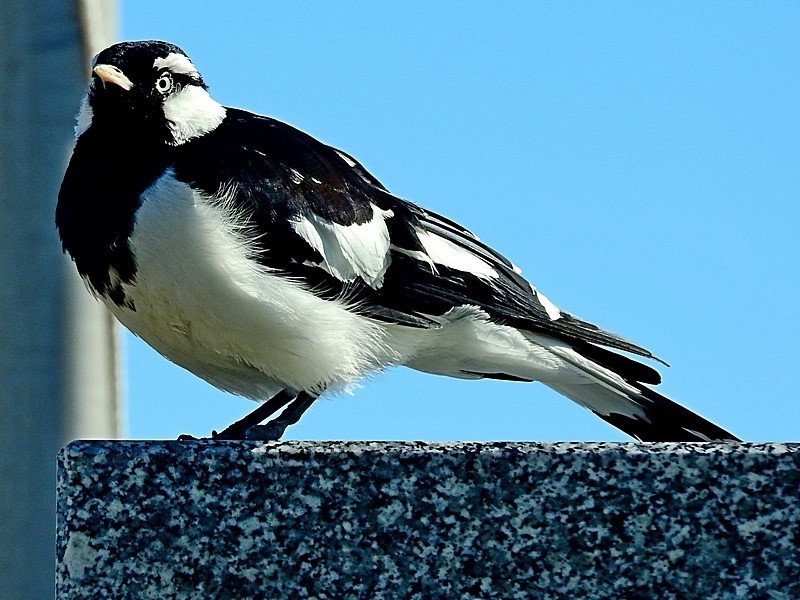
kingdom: Animalia
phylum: Chordata
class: Aves
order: Passeriformes
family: Monarchidae
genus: Grallina
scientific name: Grallina cyanoleuca
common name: Magpie-lark
